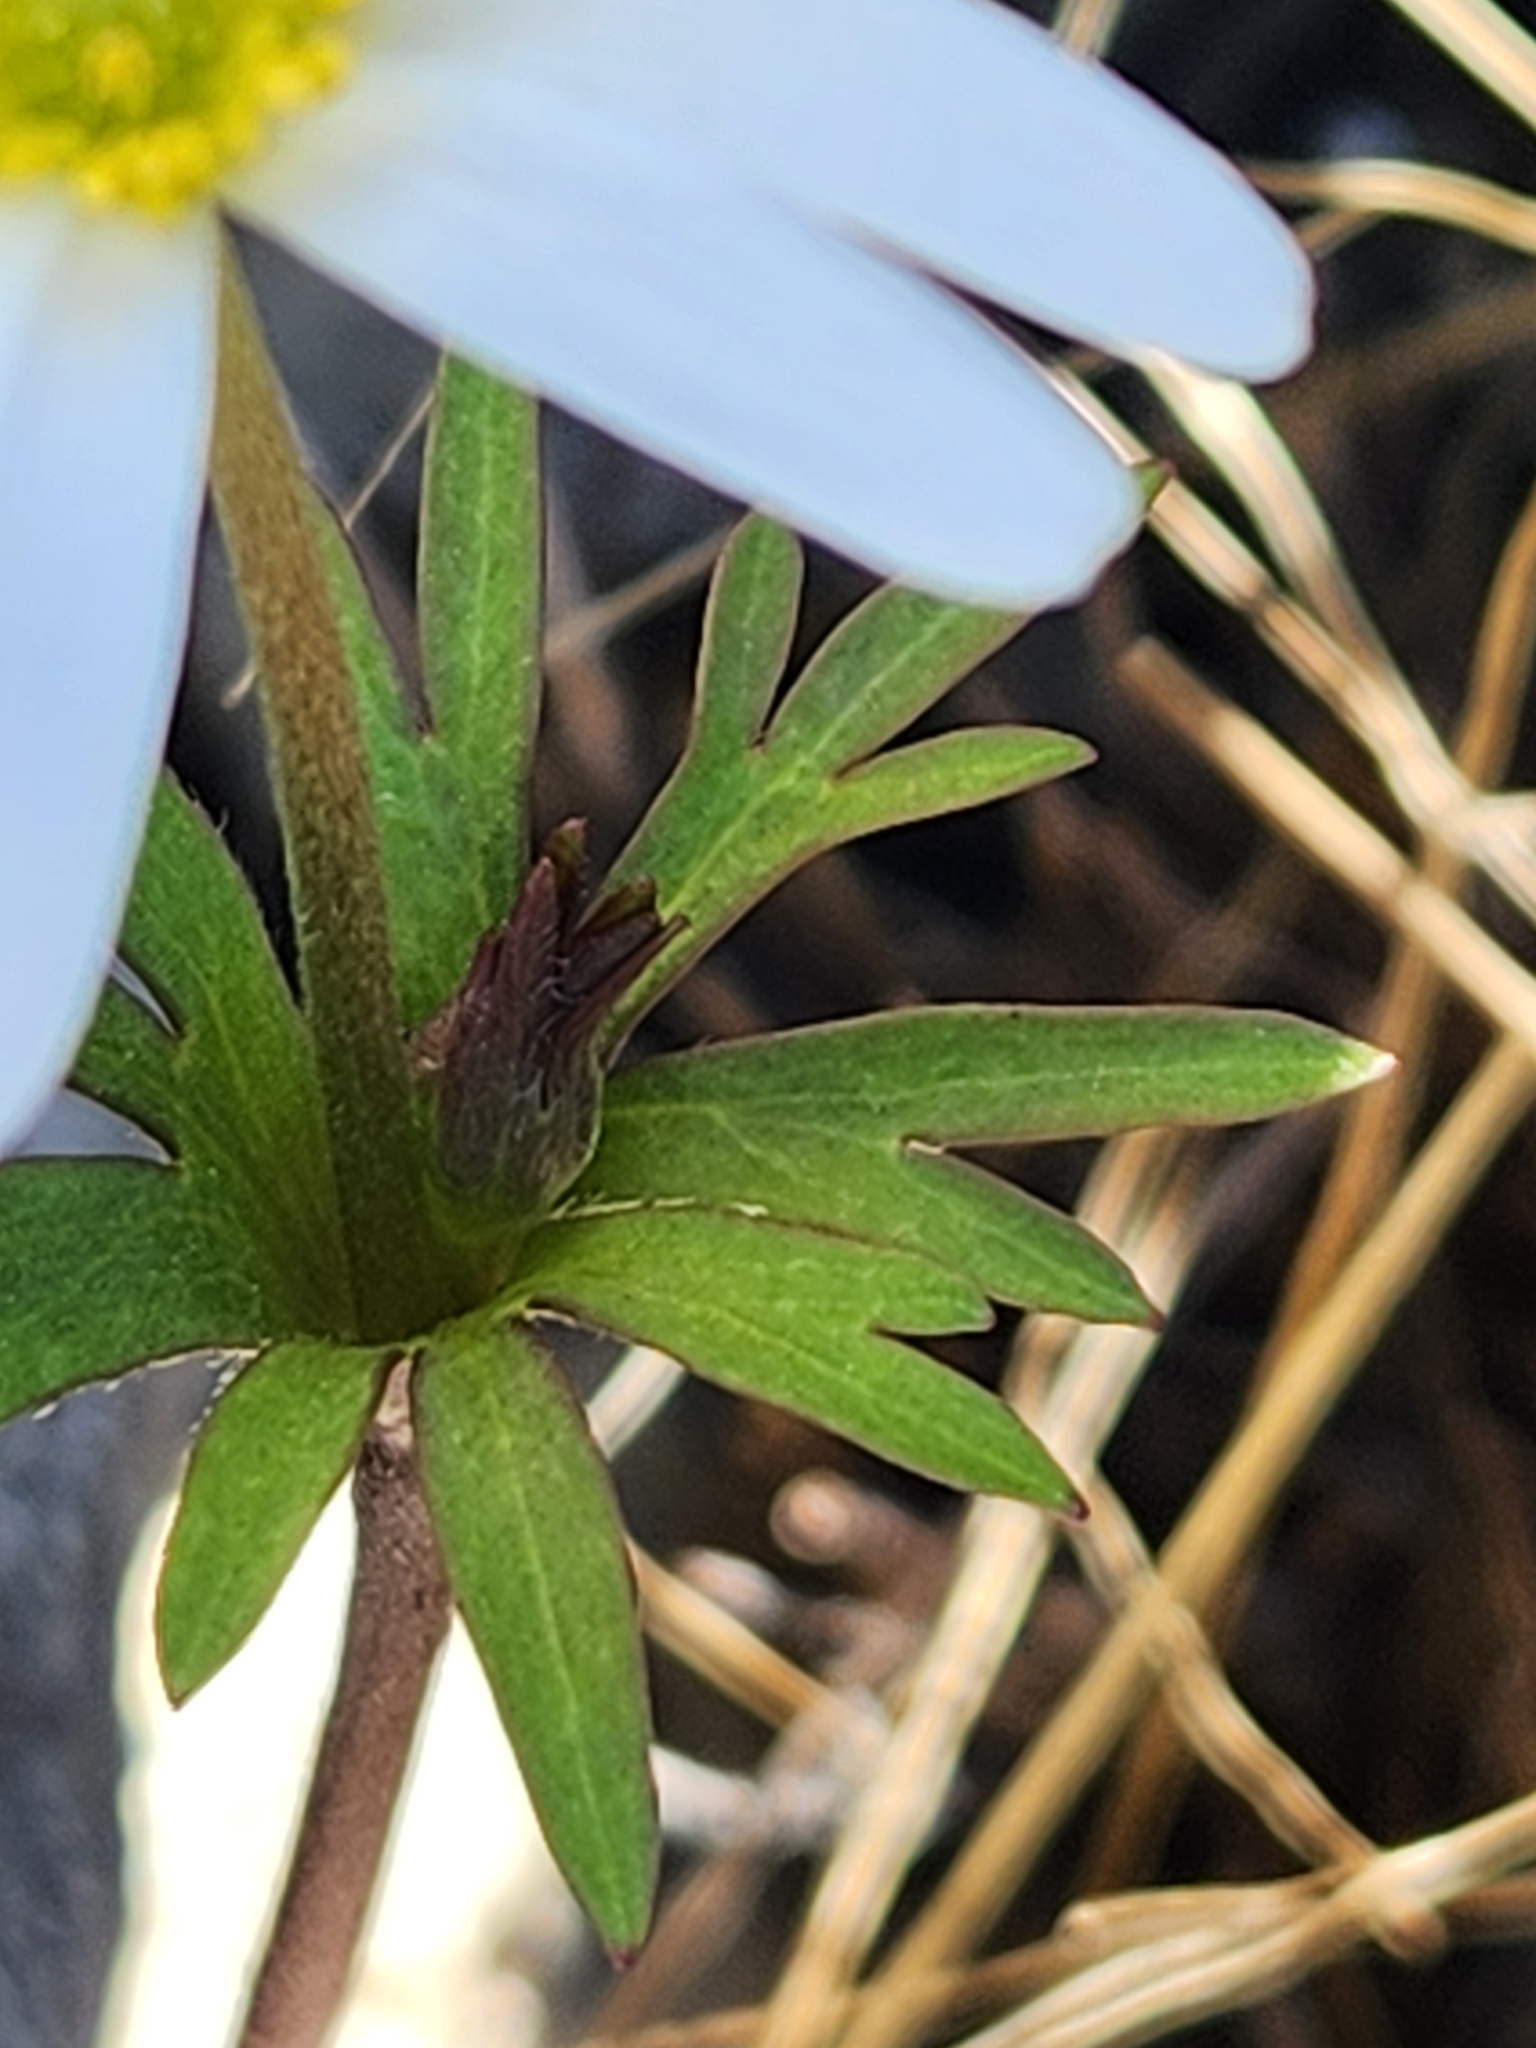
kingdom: Plantae
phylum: Tracheophyta
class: Magnoliopsida
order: Ranunculales
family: Ranunculaceae
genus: Anemone
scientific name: Anemone edwardsiana
